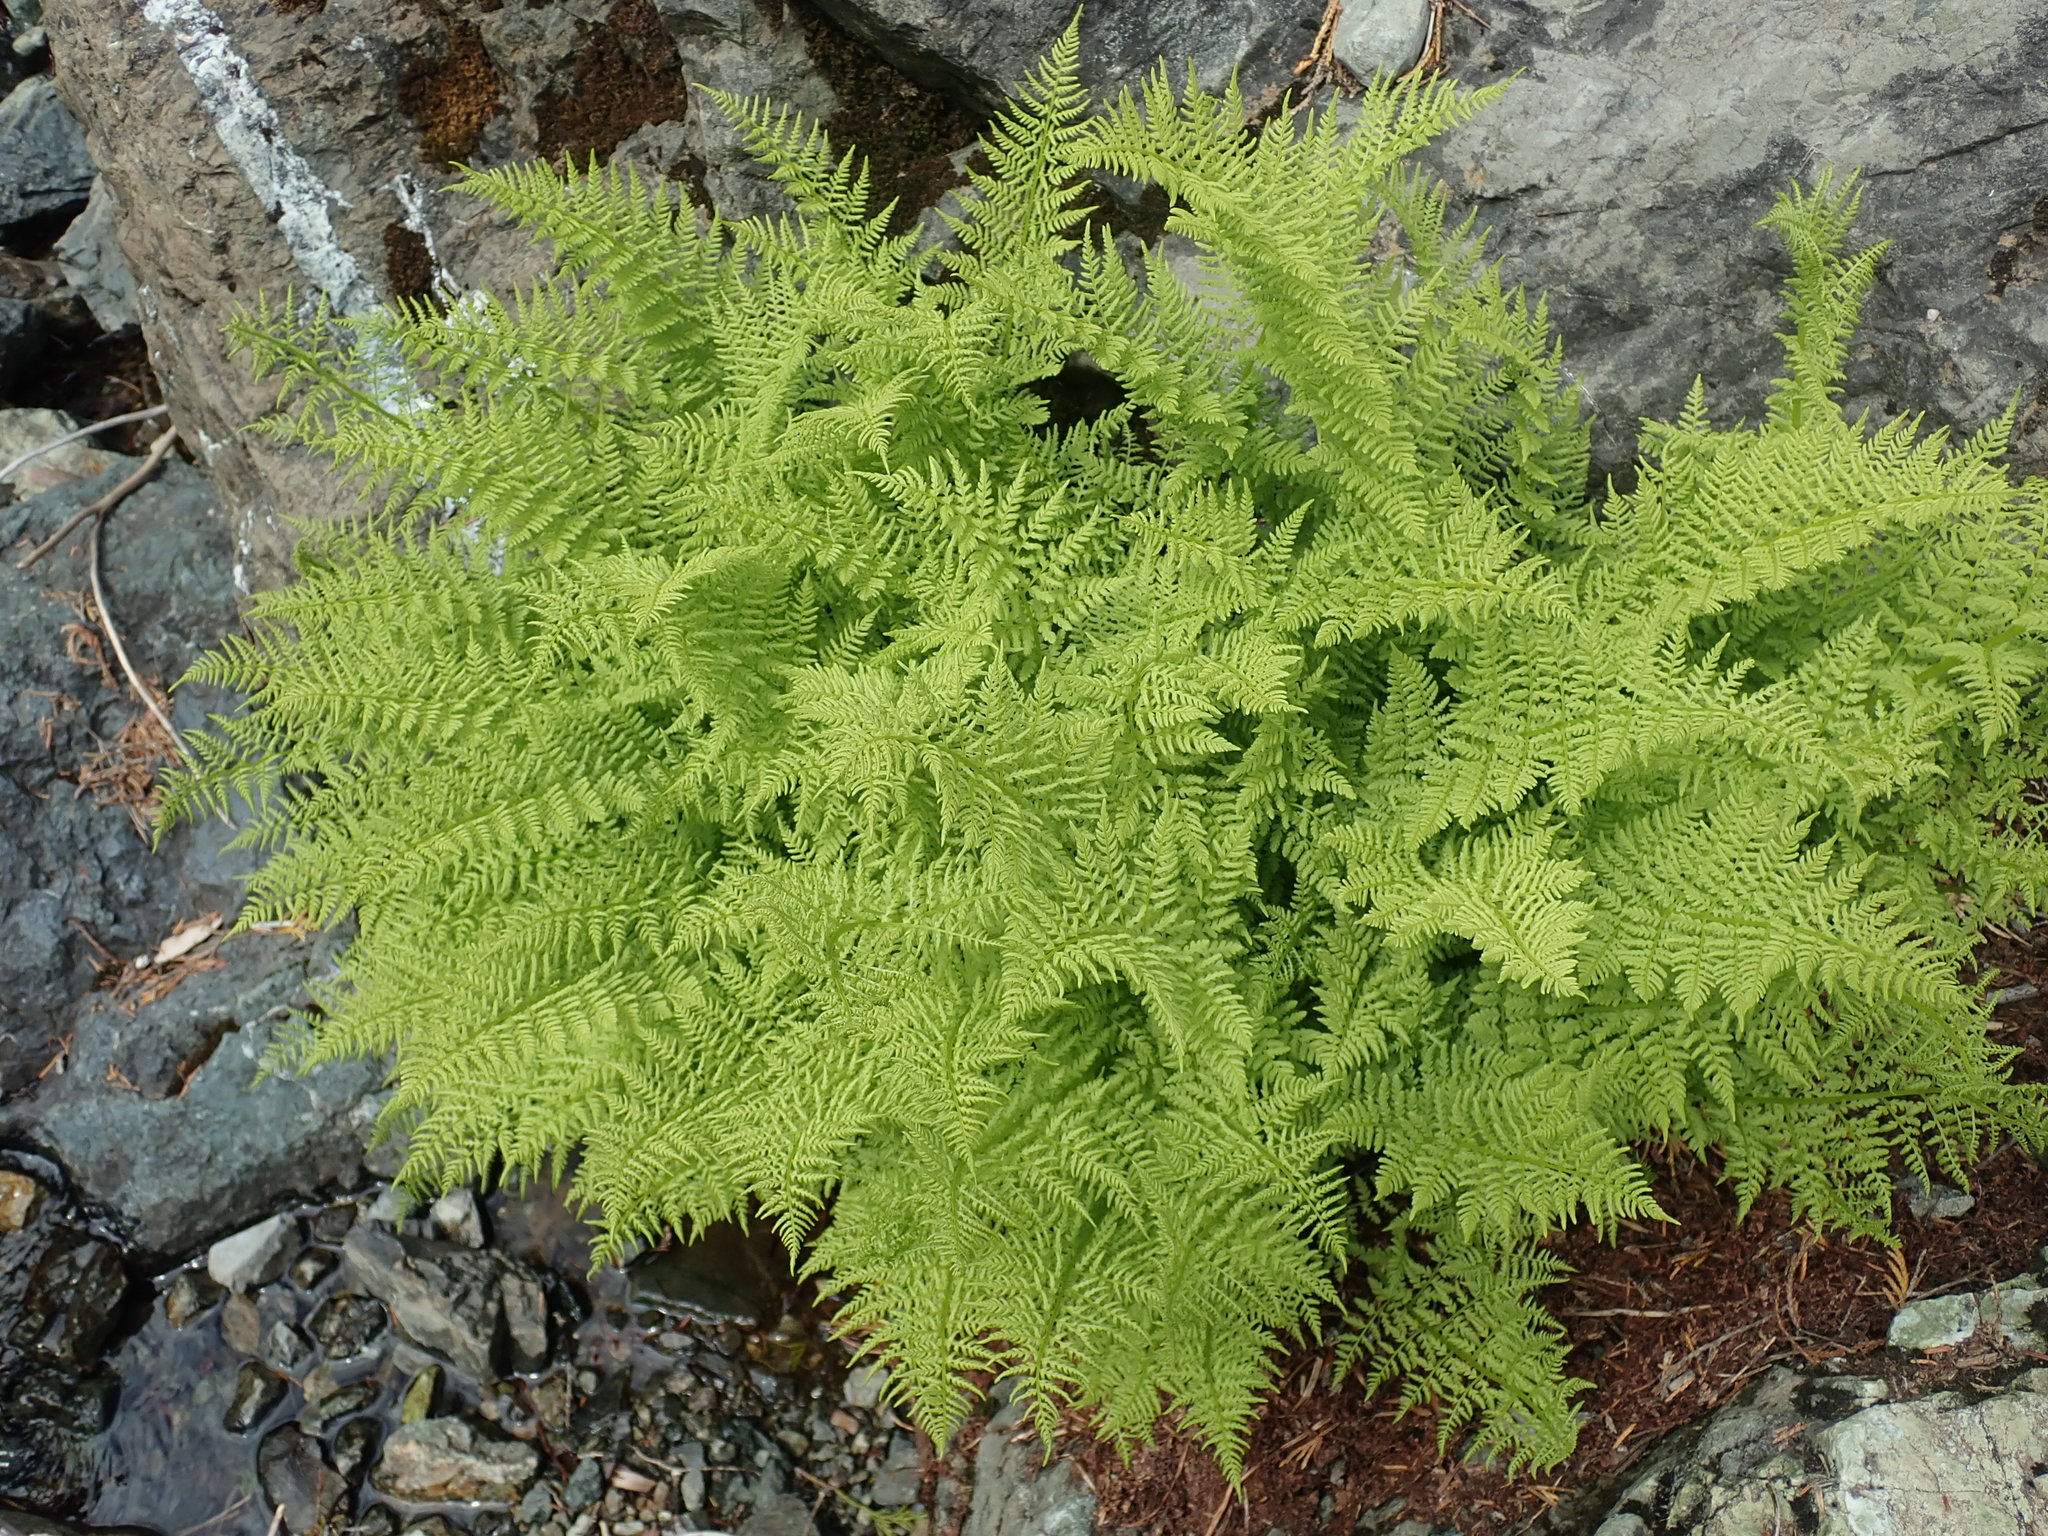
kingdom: Plantae
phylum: Tracheophyta
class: Polypodiopsida
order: Polypodiales
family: Athyriaceae
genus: Athyrium
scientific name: Athyrium americanum
